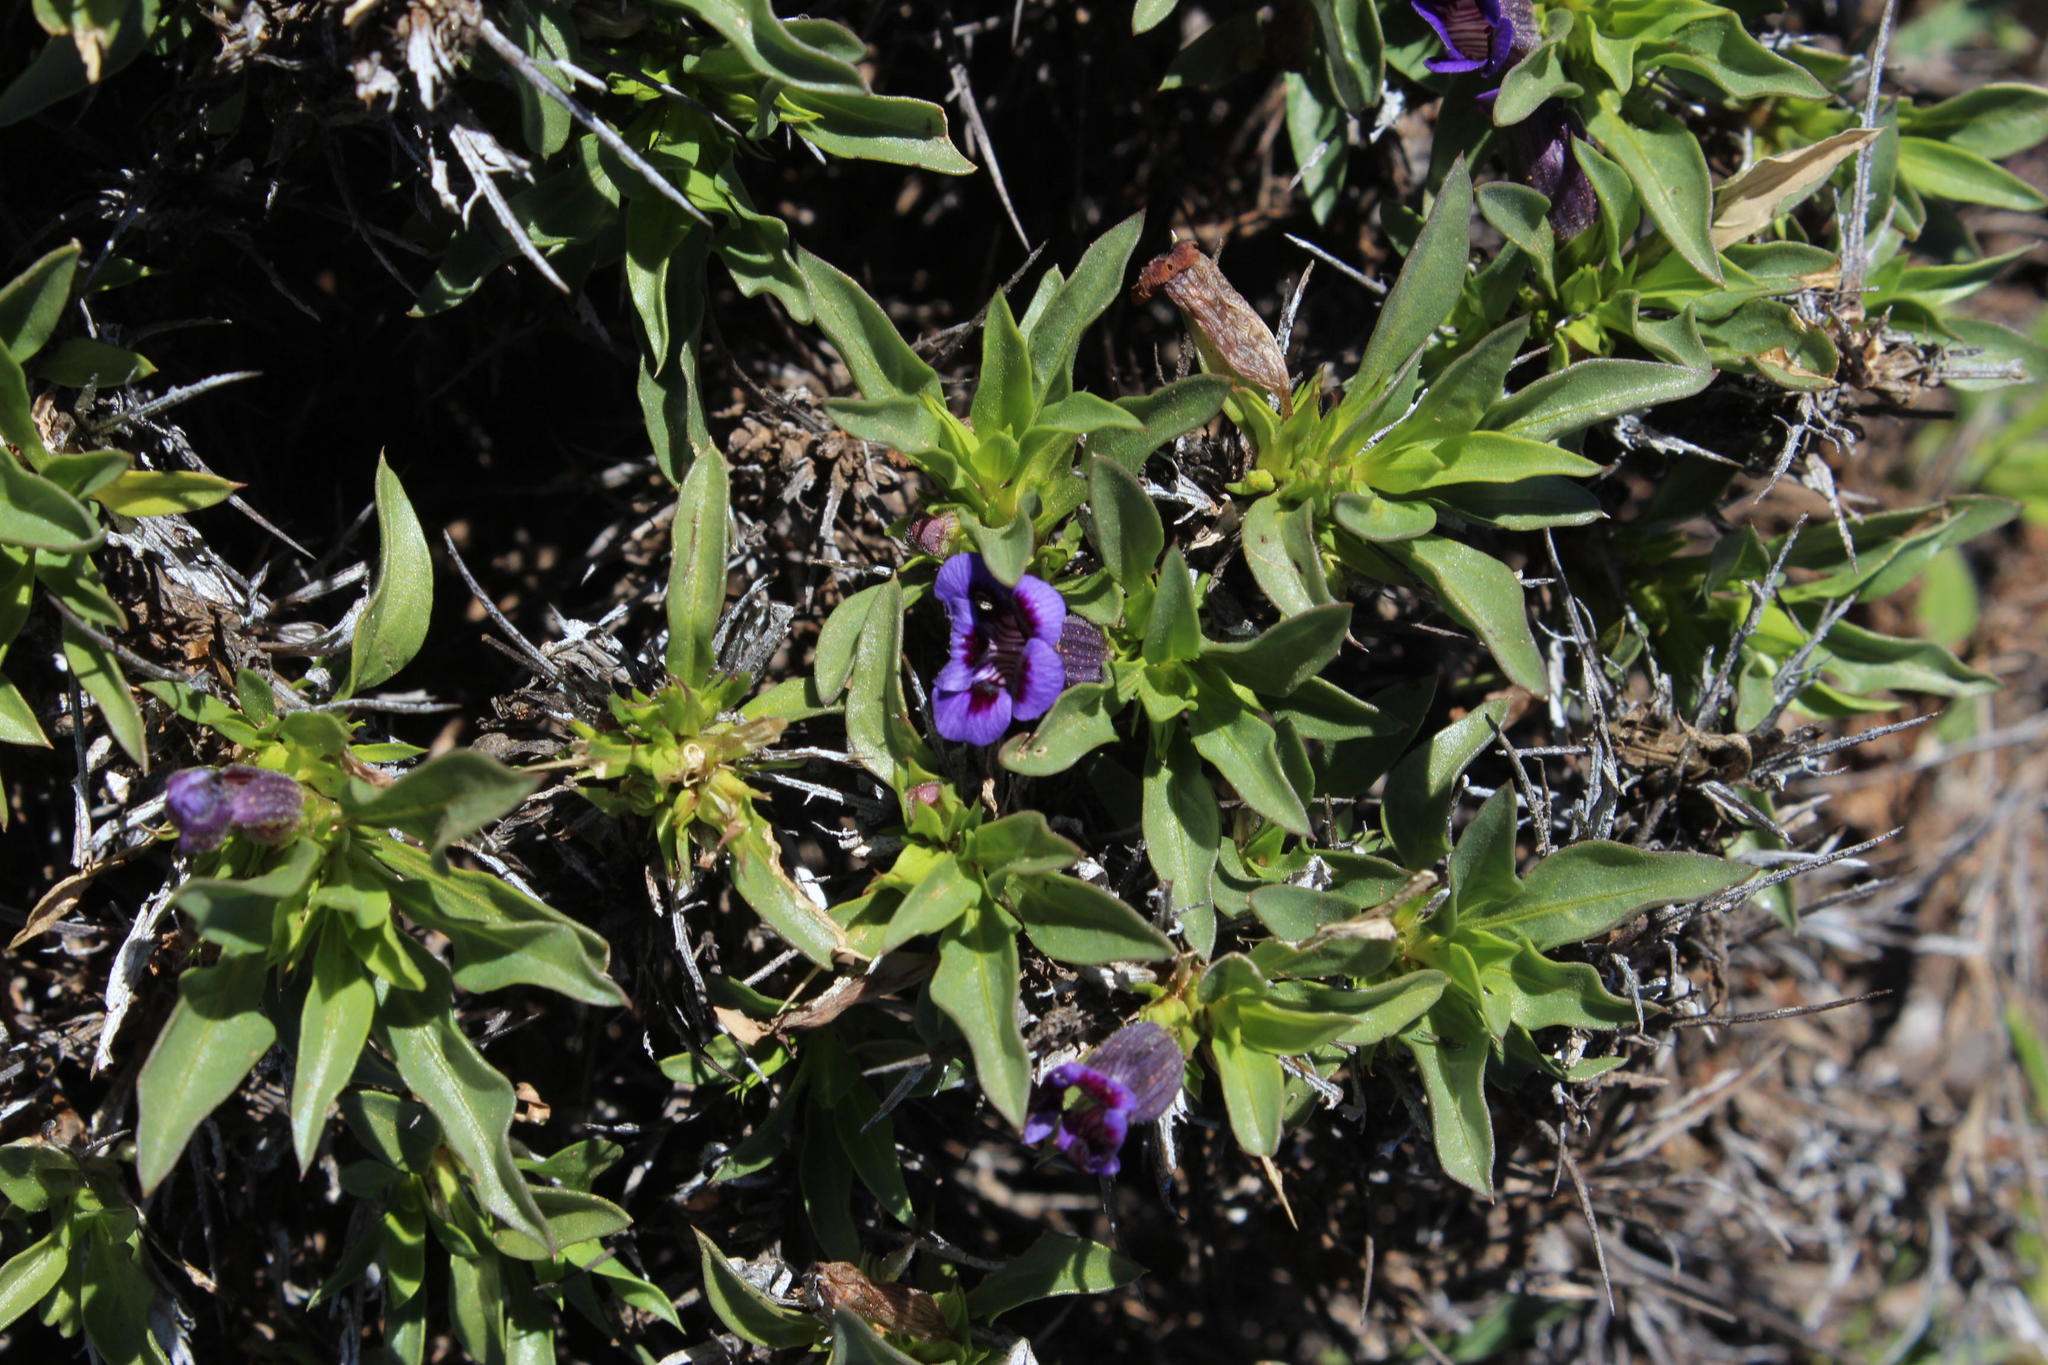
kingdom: Plantae
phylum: Tracheophyta
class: Magnoliopsida
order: Lamiales
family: Scrophulariaceae
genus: Aptosimum
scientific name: Aptosimum viscosum
